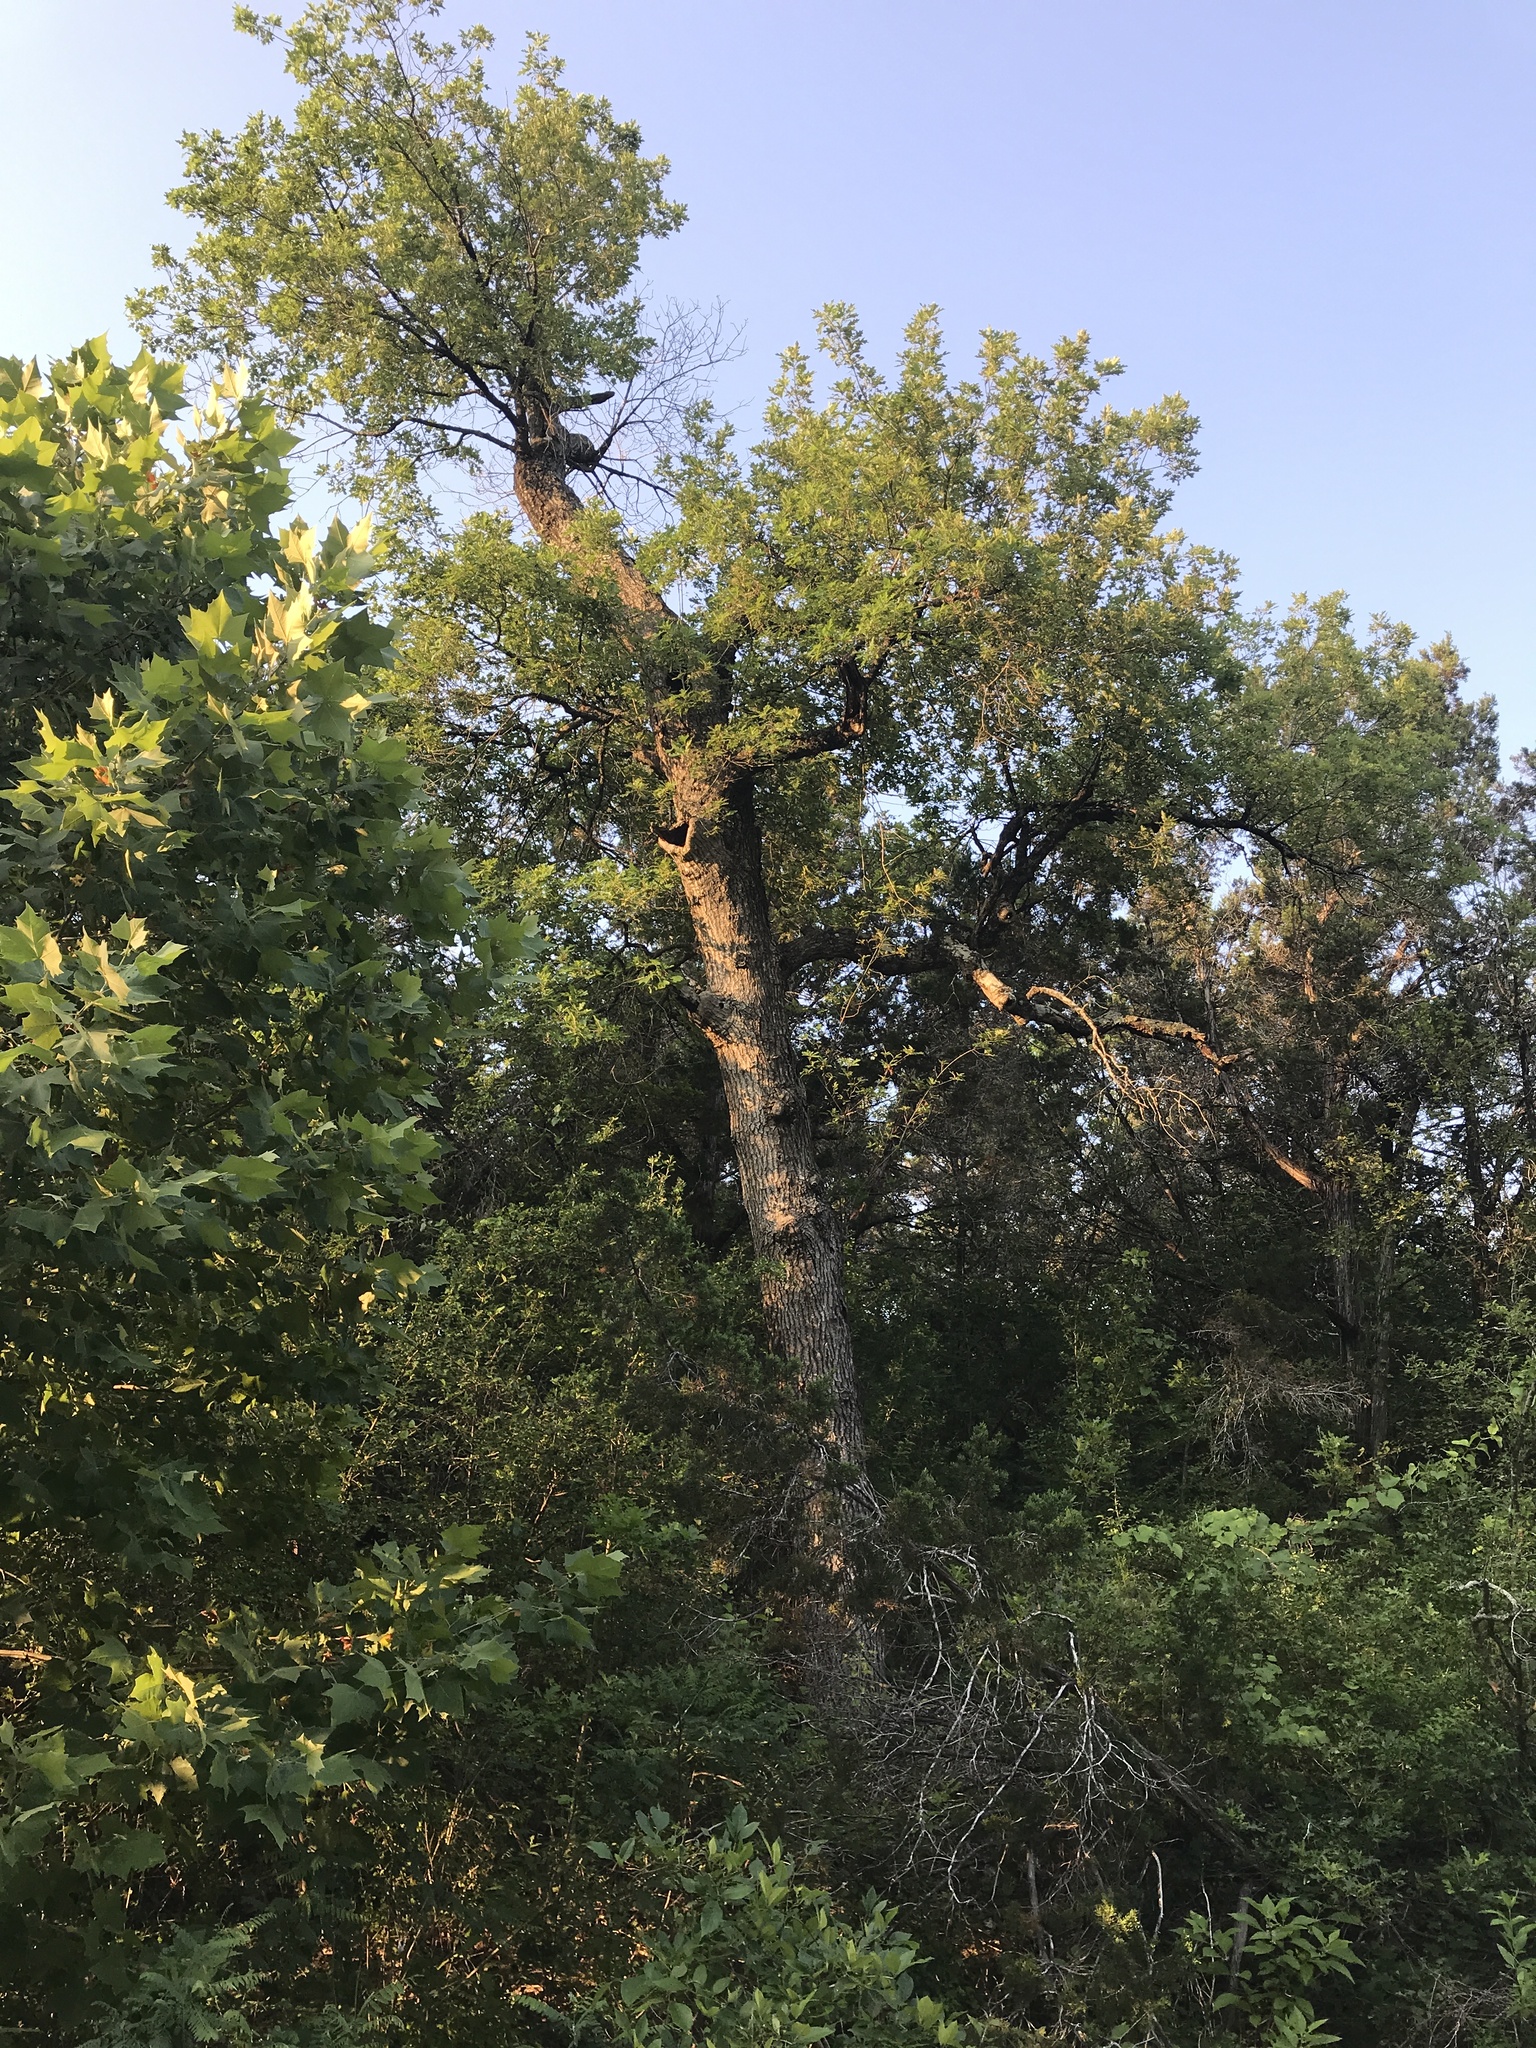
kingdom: Plantae
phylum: Tracheophyta
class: Magnoliopsida
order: Fagales
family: Fagaceae
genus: Quercus
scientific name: Quercus shumardii
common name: Shumard oak
